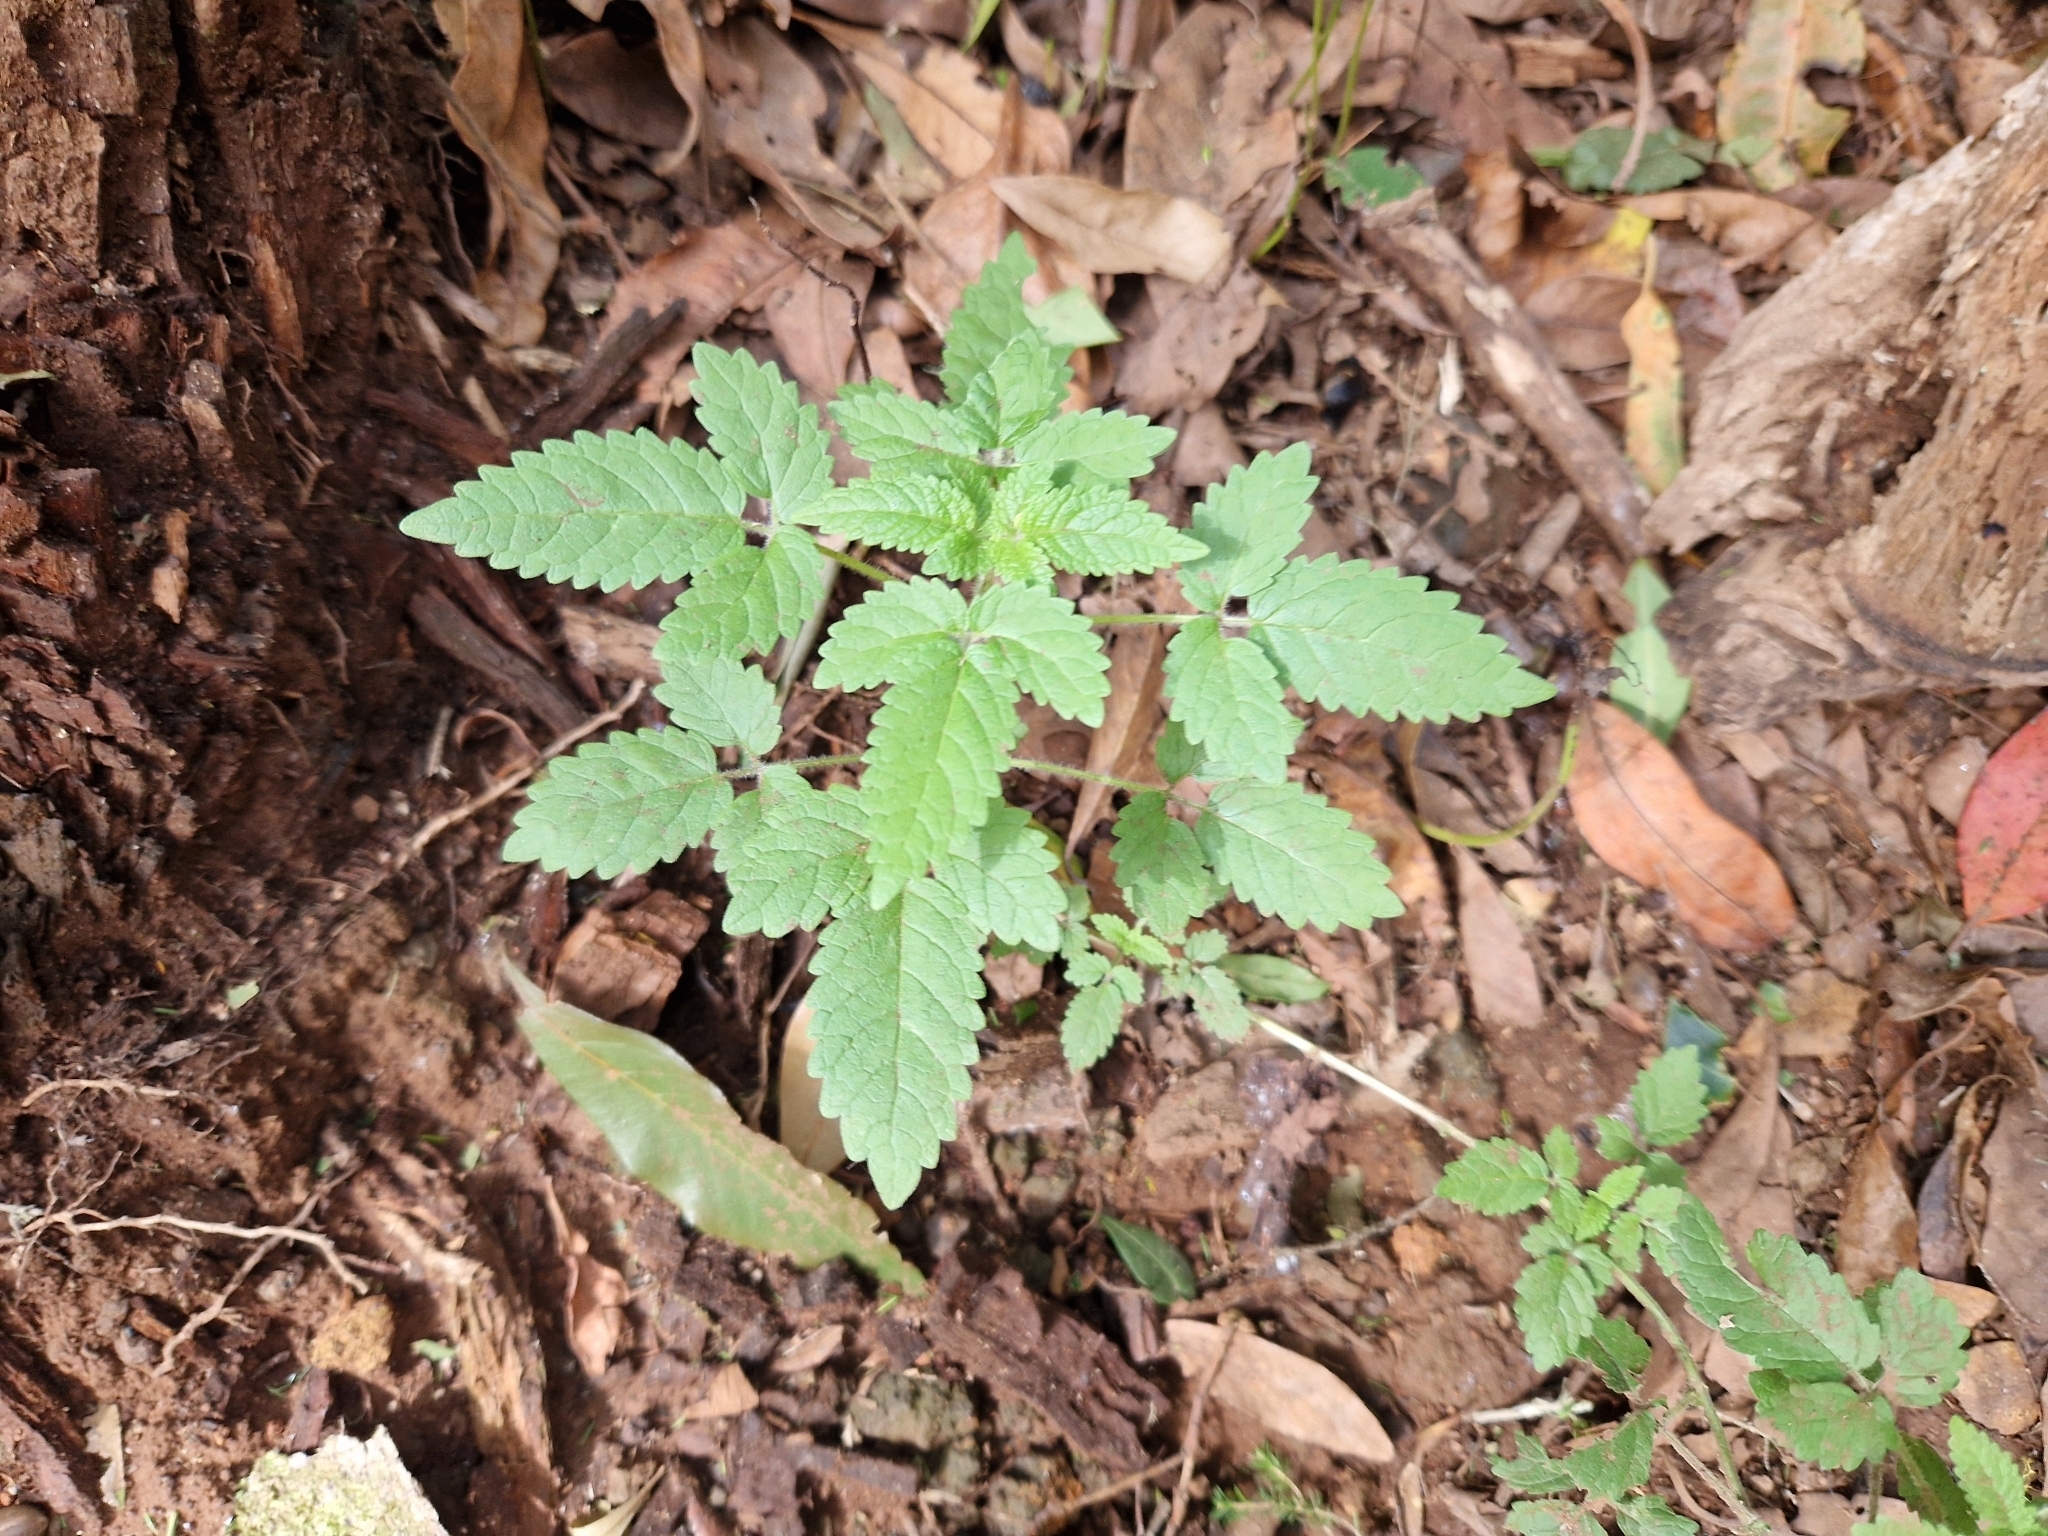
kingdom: Plantae
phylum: Tracheophyta
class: Magnoliopsida
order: Lamiales
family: Lamiaceae
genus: Cedronella
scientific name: Cedronella canariensis
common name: Canary islands balm
